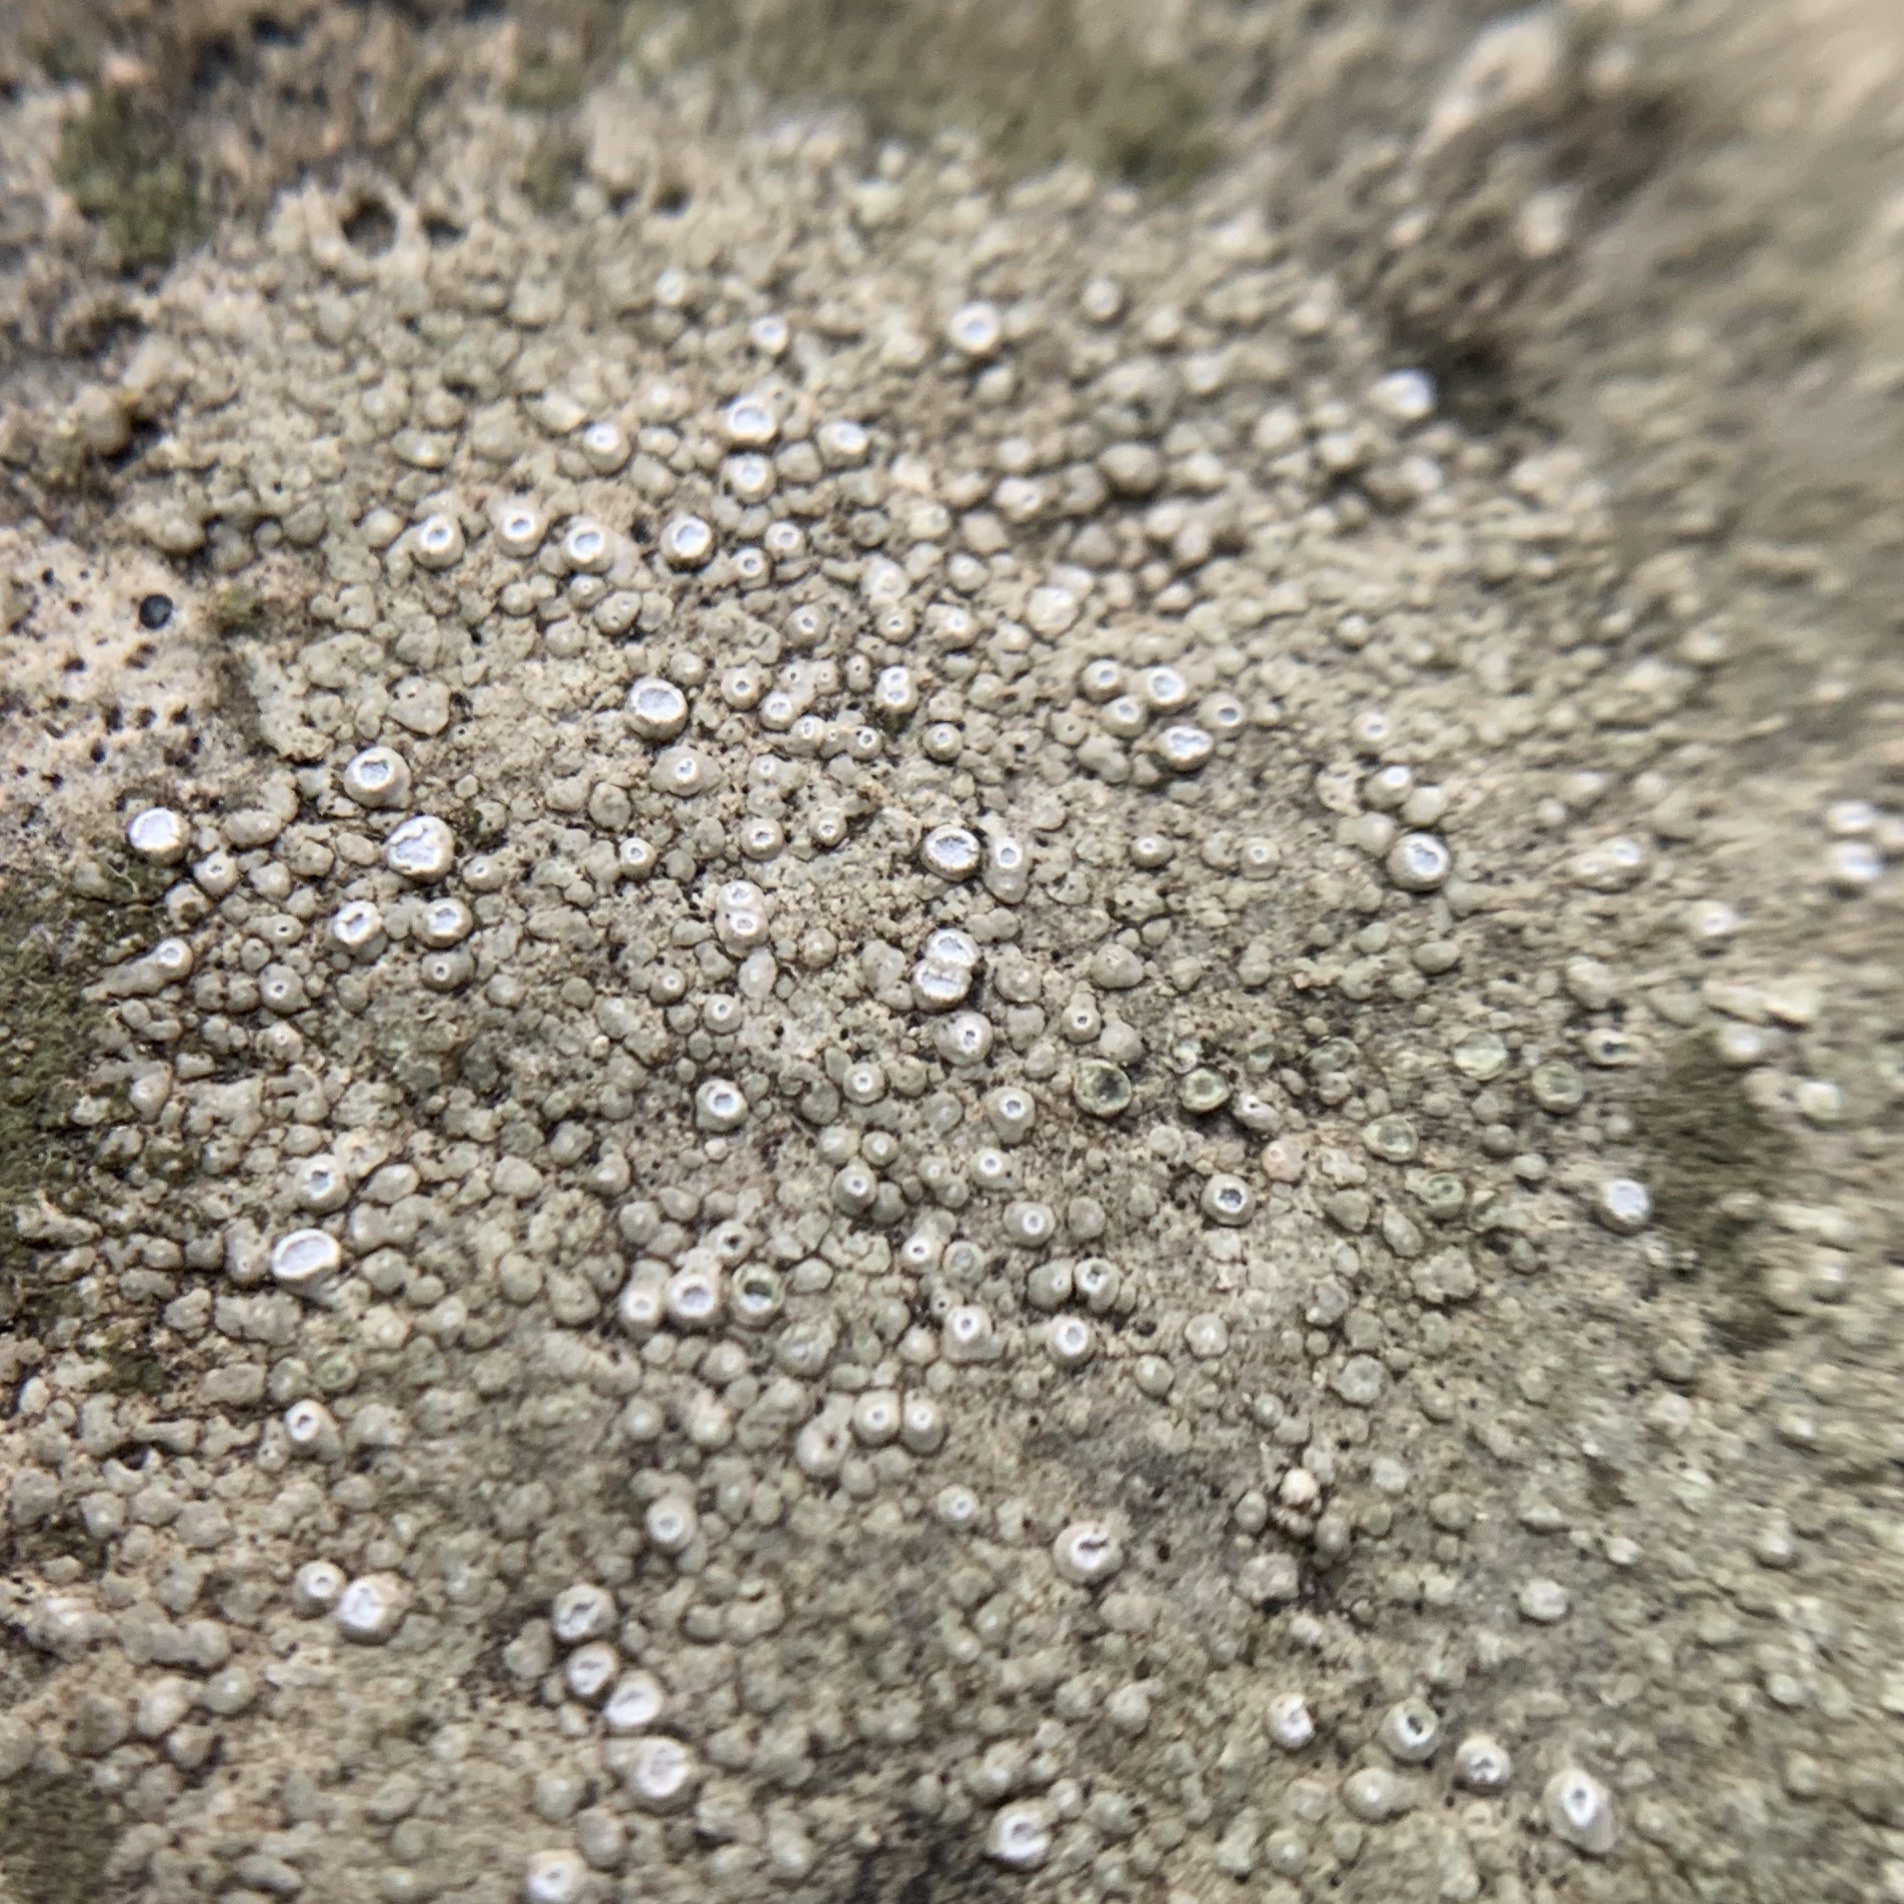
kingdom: Fungi
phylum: Ascomycota
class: Lecanoromycetes
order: Pertusariales
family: Megasporaceae
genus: Circinaria
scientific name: Circinaria contorta
